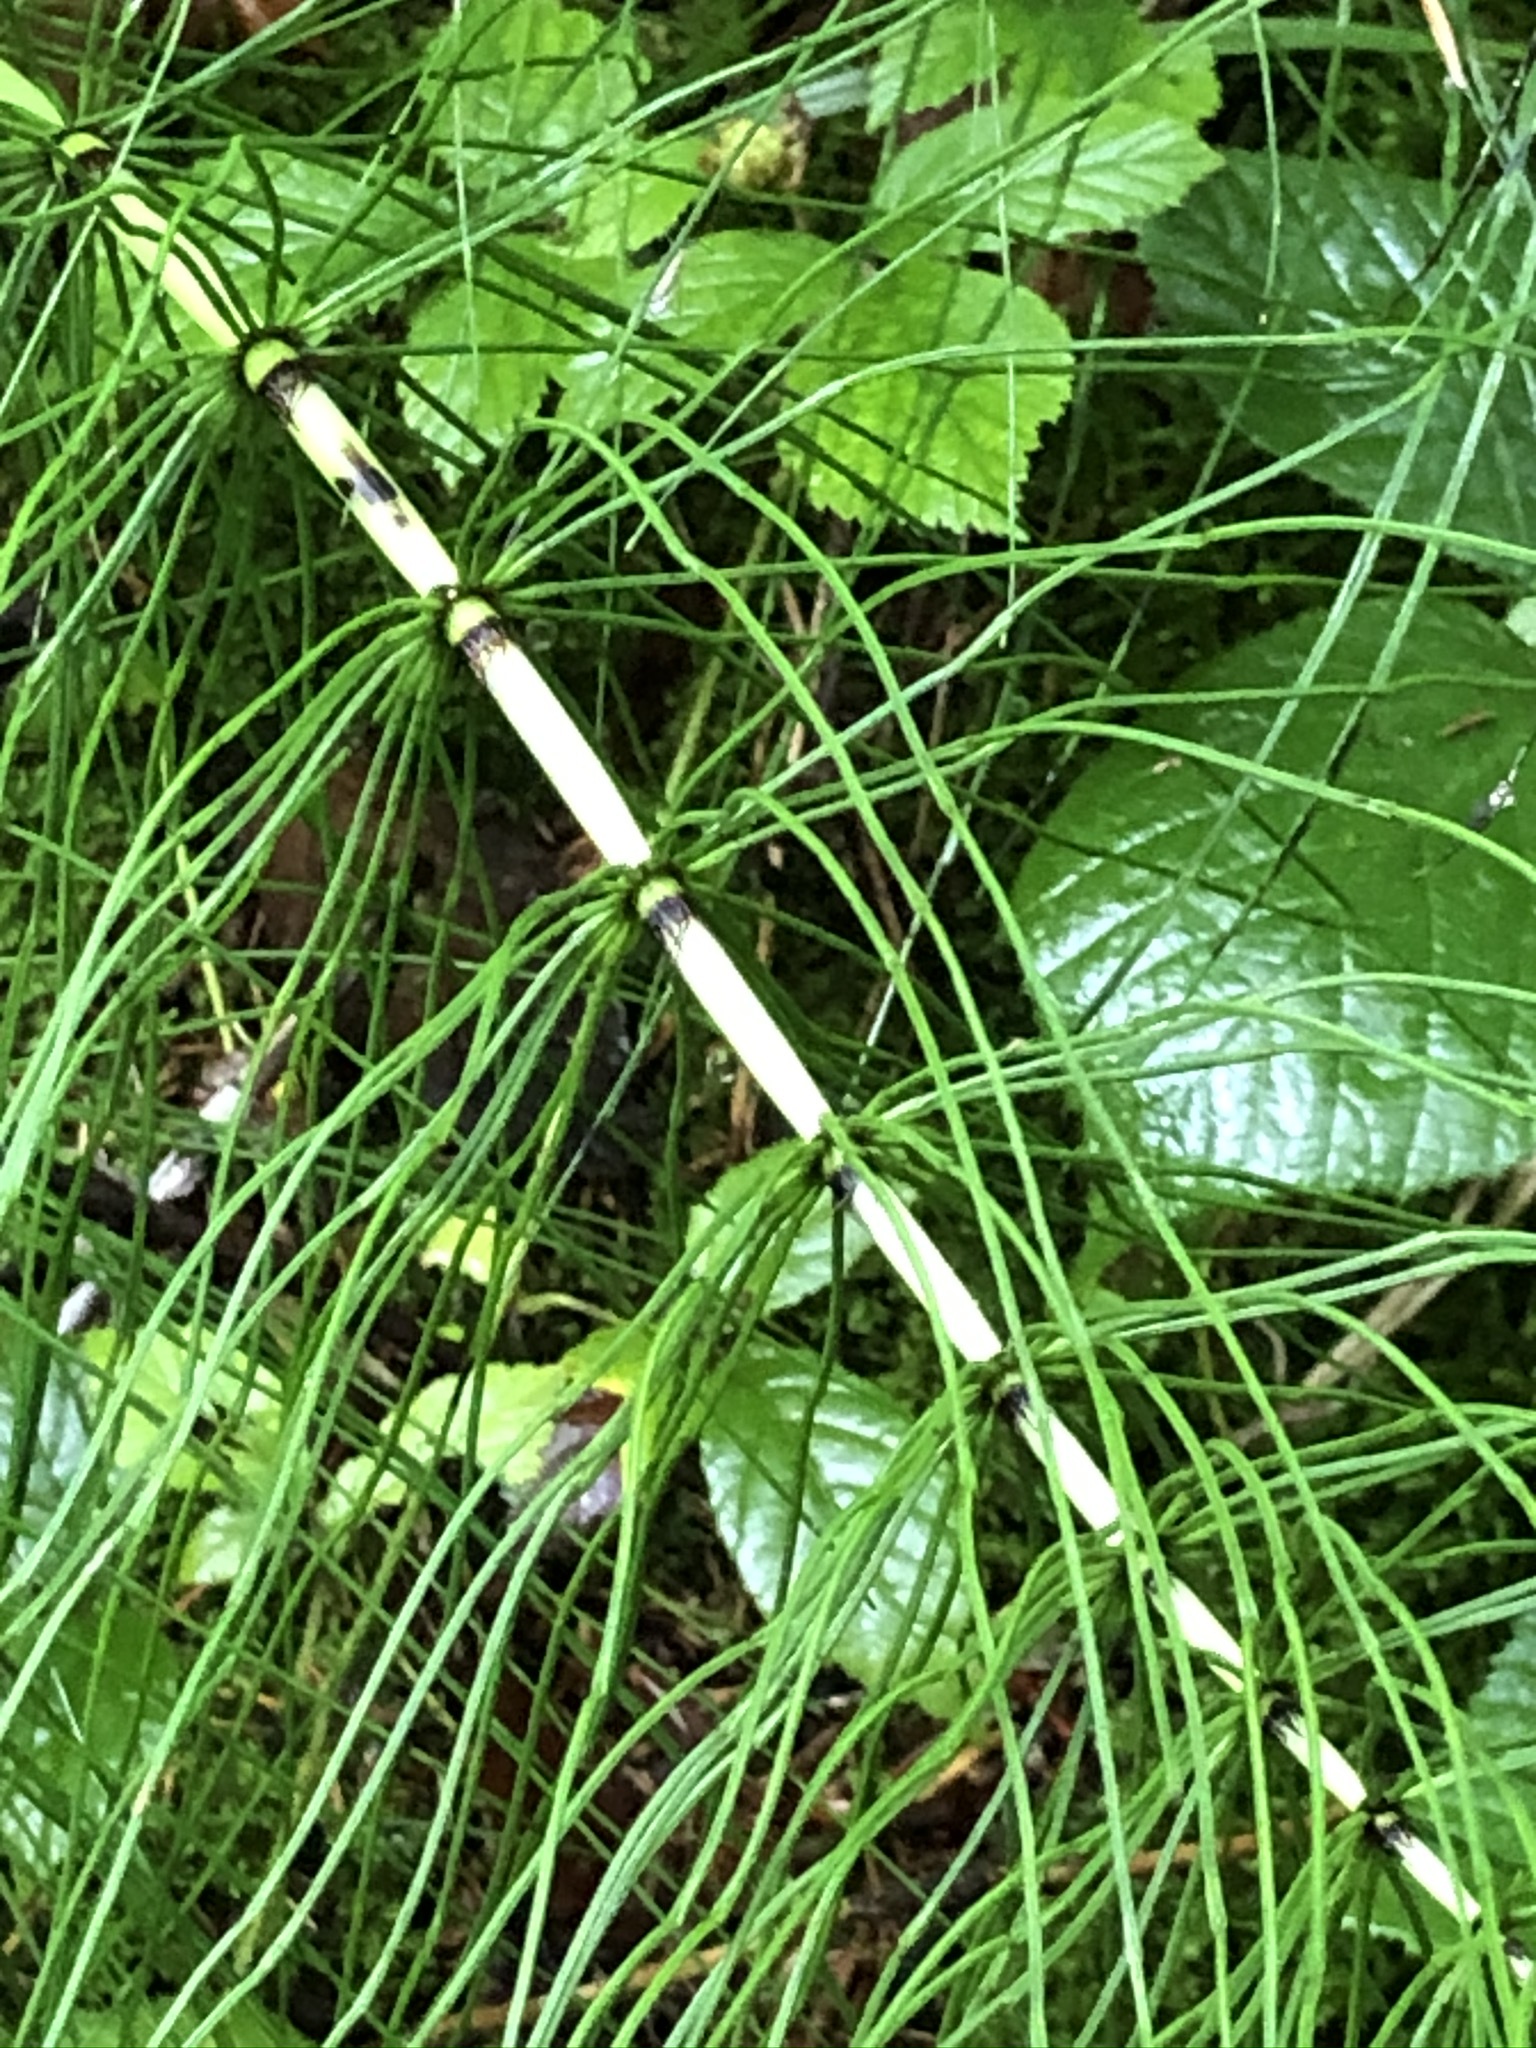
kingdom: Plantae
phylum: Tracheophyta
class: Polypodiopsida
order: Equisetales
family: Equisetaceae
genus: Equisetum
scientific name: Equisetum telmateia
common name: Great horsetail
